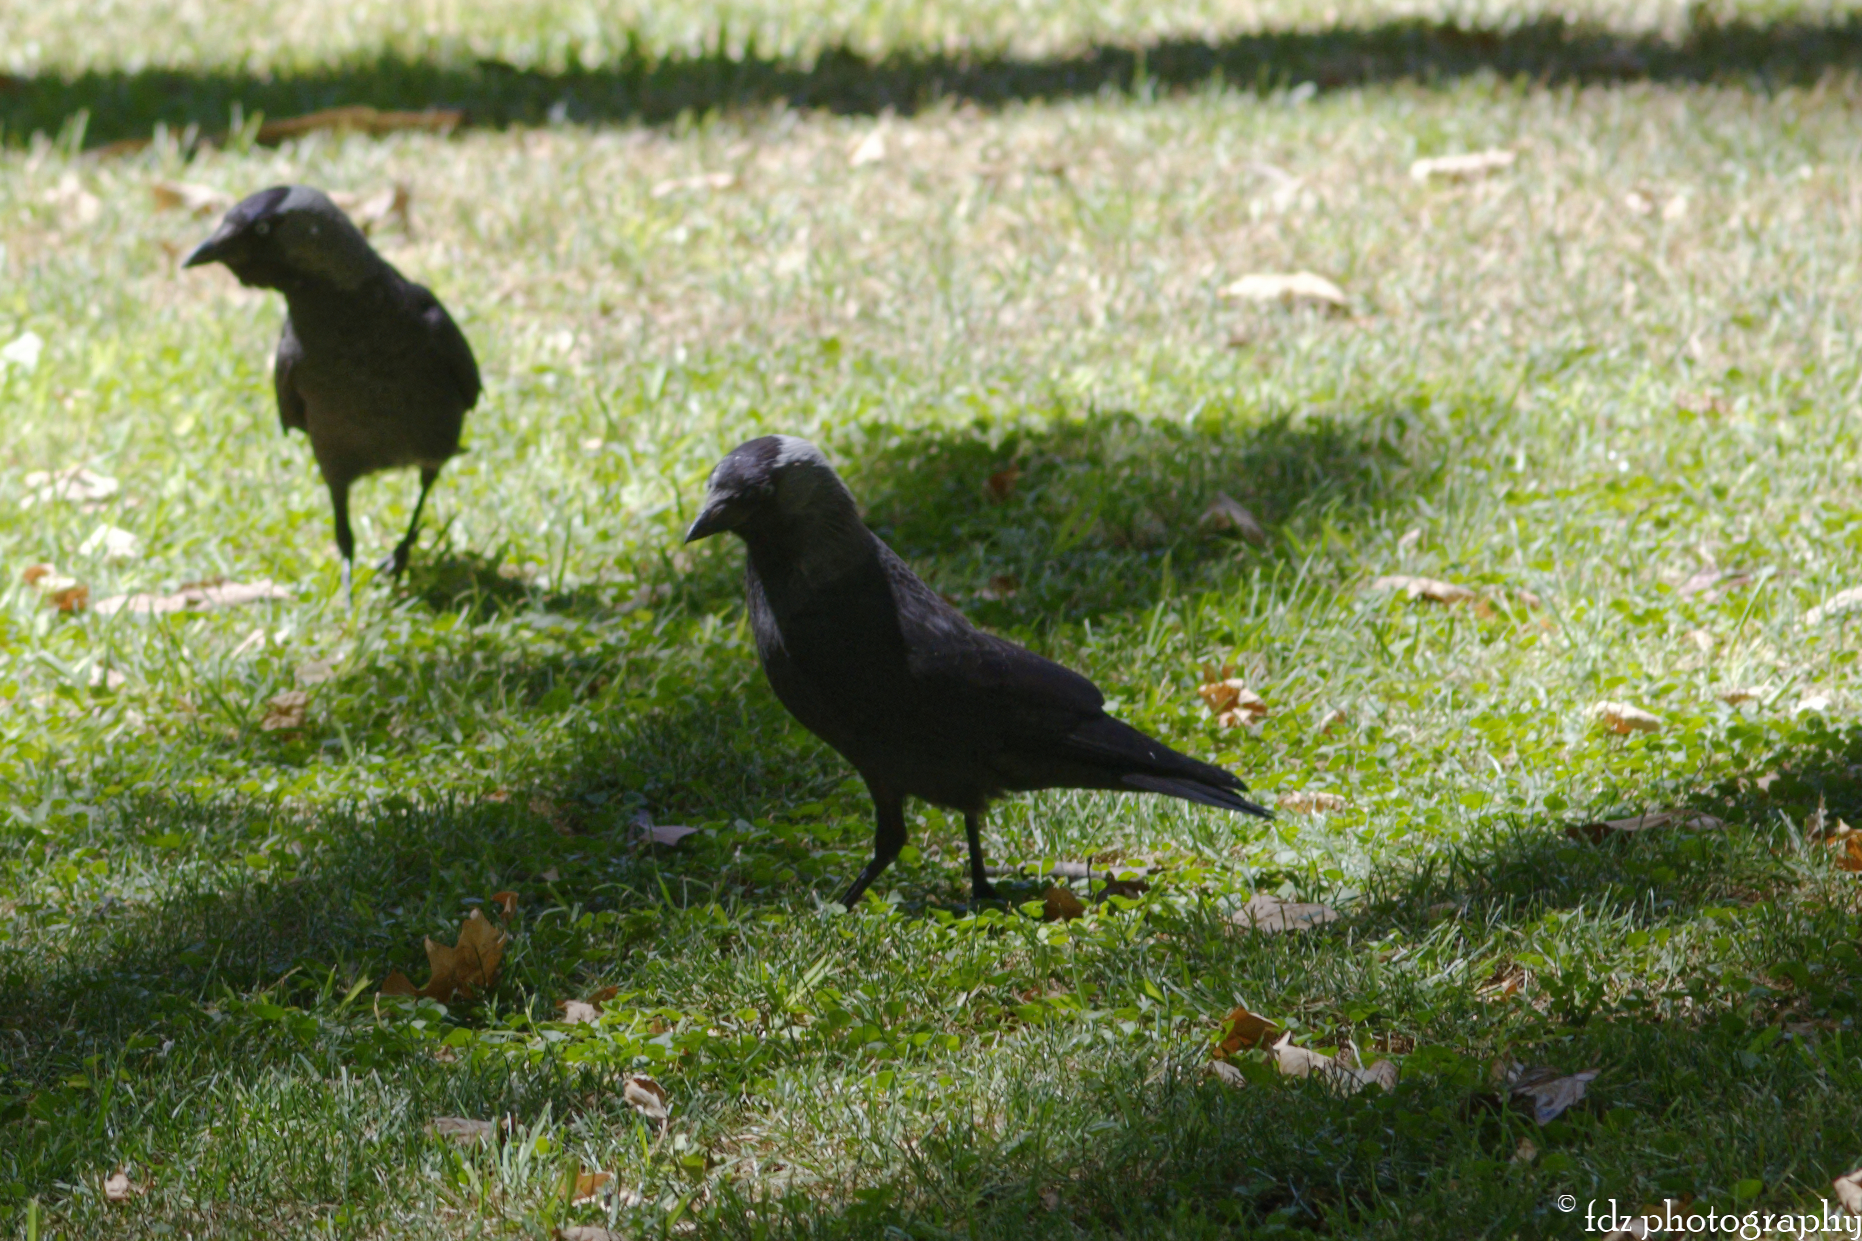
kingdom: Animalia
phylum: Chordata
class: Aves
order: Passeriformes
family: Corvidae
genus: Coloeus
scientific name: Coloeus monedula
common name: Western jackdaw
